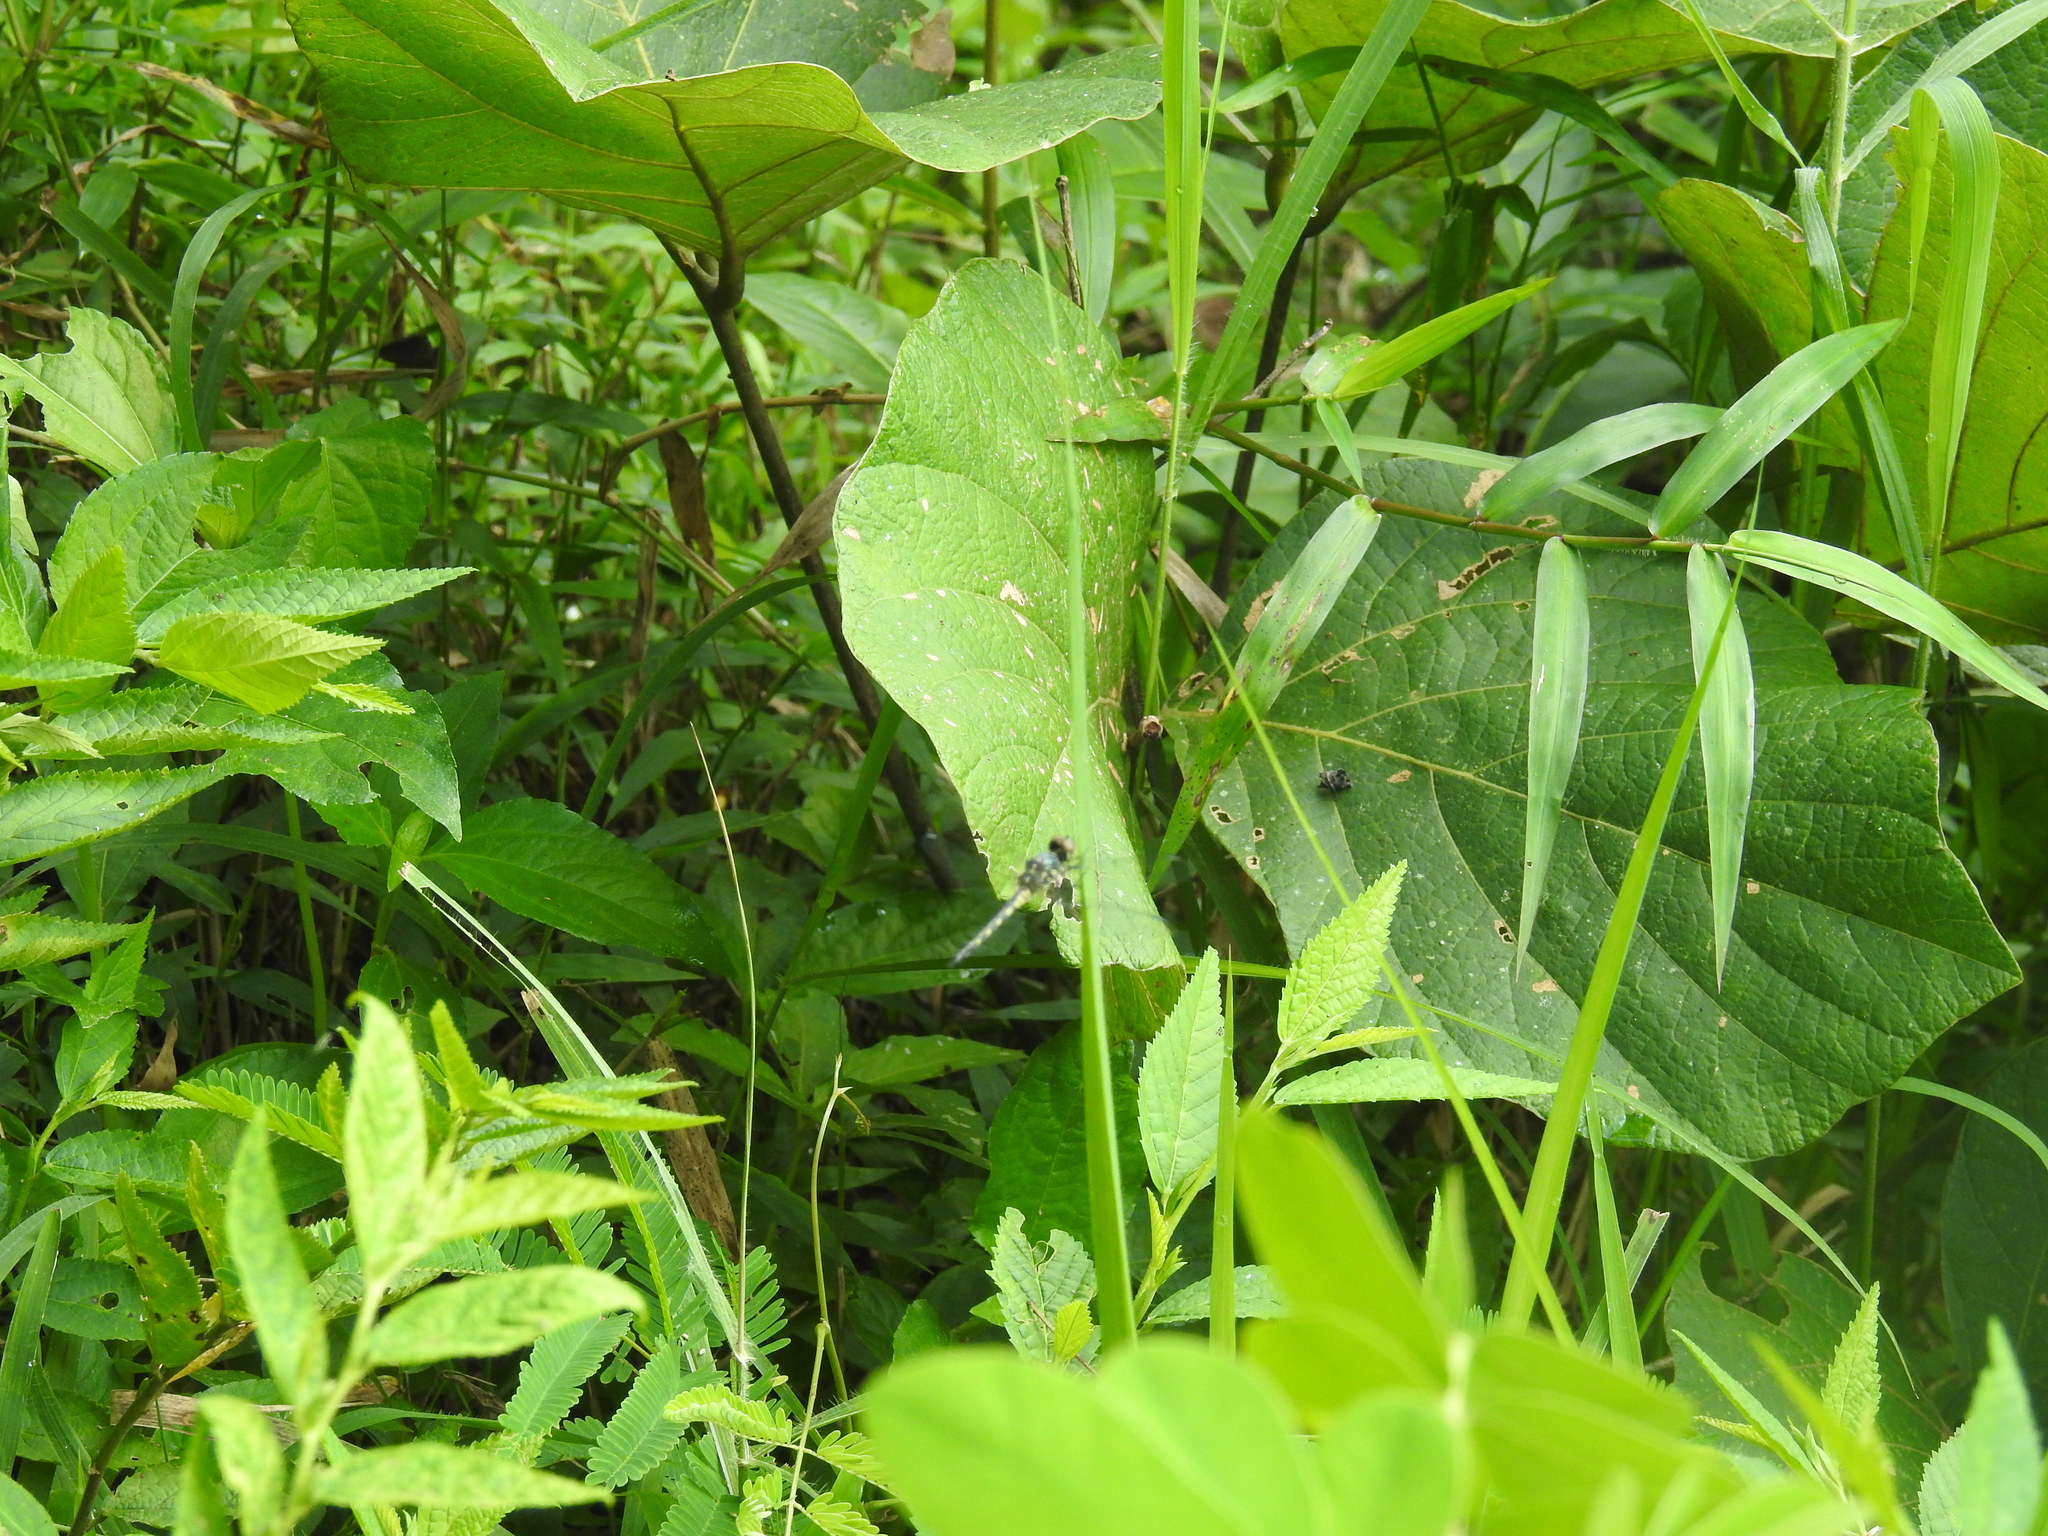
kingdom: Animalia
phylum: Arthropoda
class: Insecta
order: Odonata
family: Libellulidae
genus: Brachydiplax
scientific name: Brachydiplax sobrina
